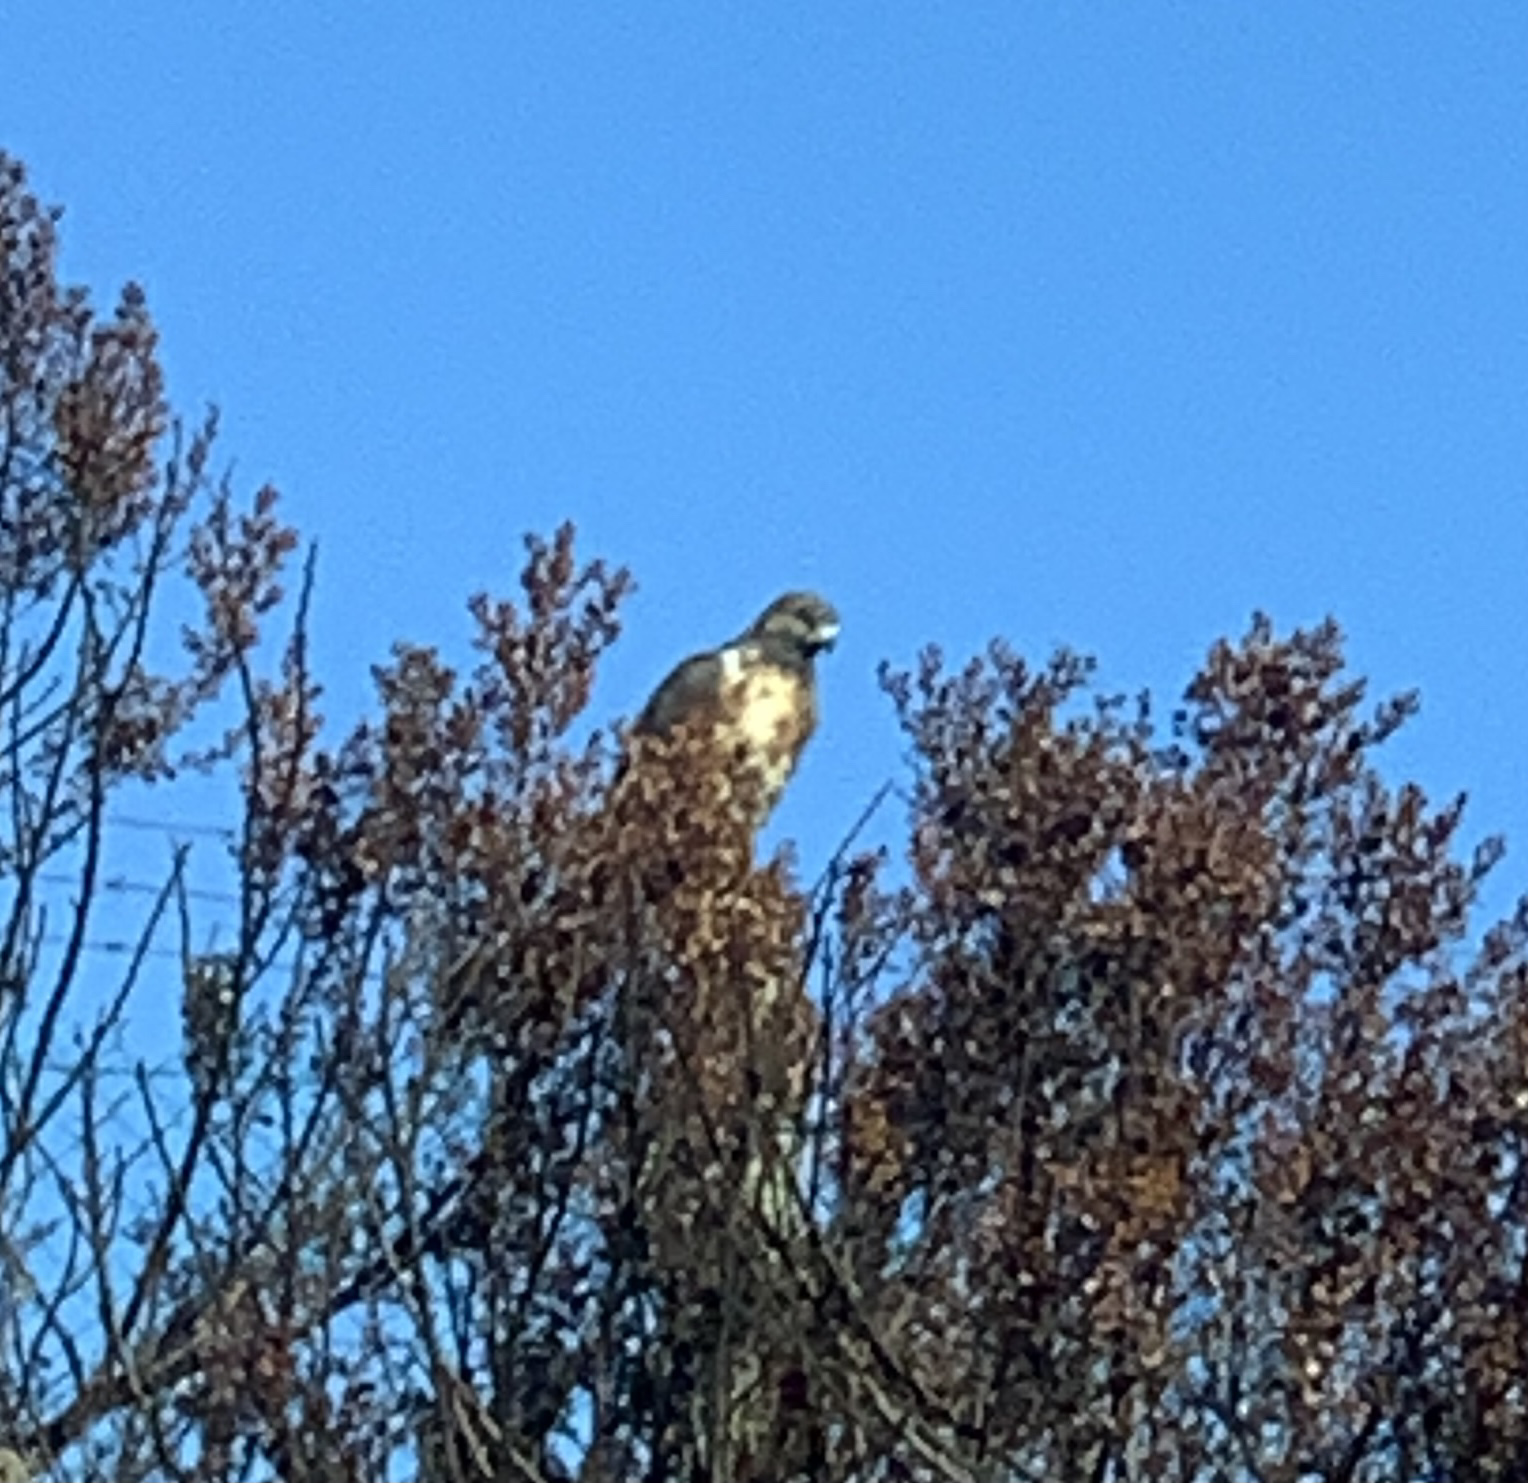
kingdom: Animalia
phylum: Chordata
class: Aves
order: Accipitriformes
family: Accipitridae
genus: Buteo
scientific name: Buteo rufofuscus
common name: Jackal buzzard
